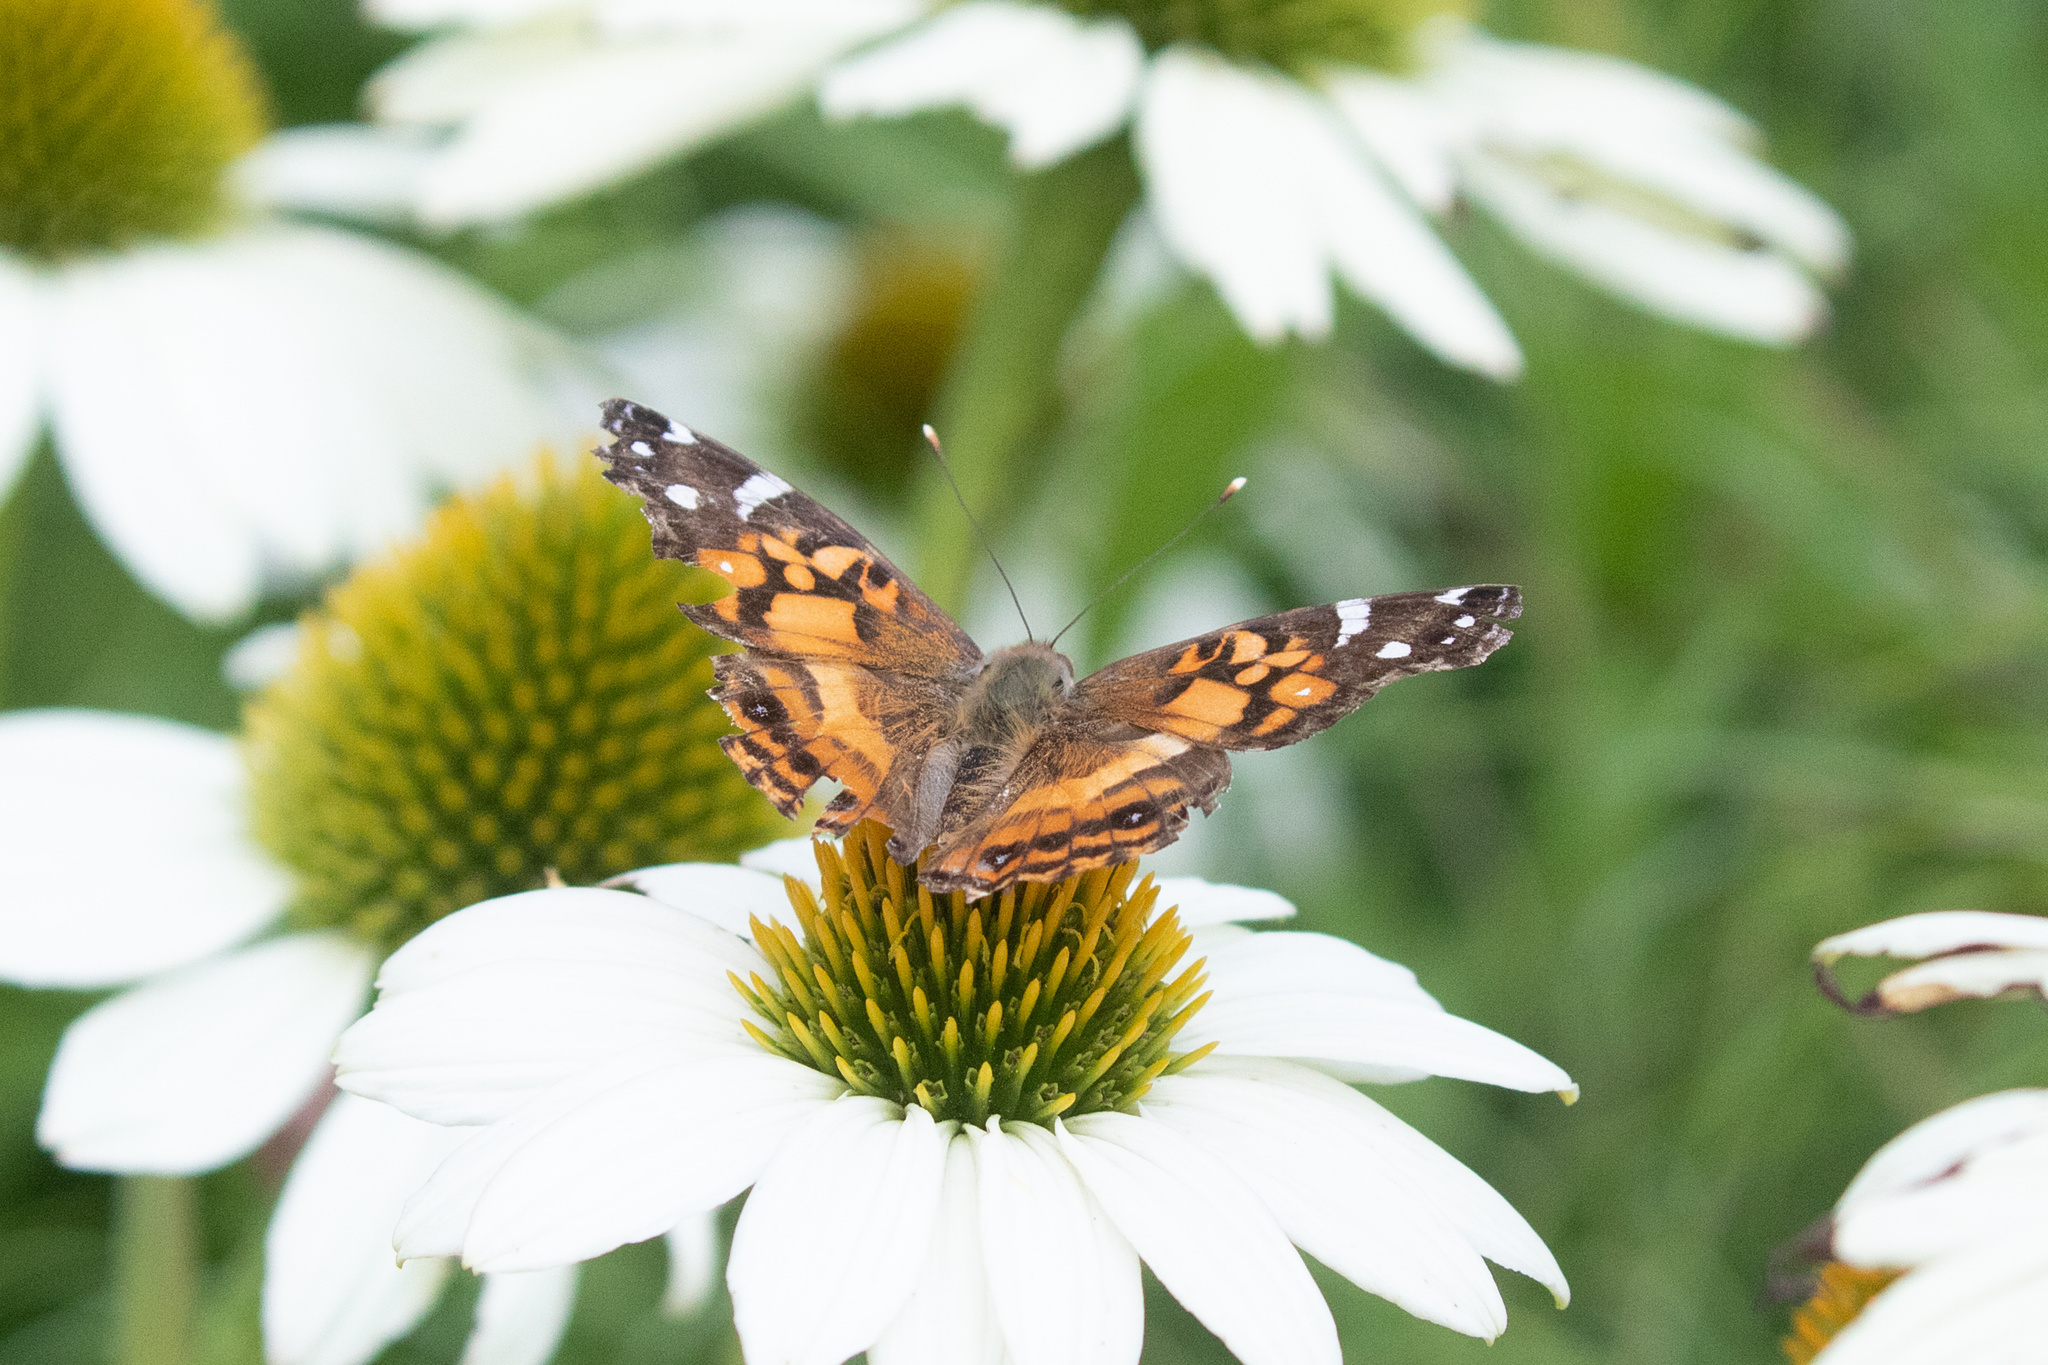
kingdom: Animalia
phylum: Arthropoda
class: Insecta
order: Lepidoptera
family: Nymphalidae
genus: Vanessa
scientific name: Vanessa virginiensis
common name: American lady
